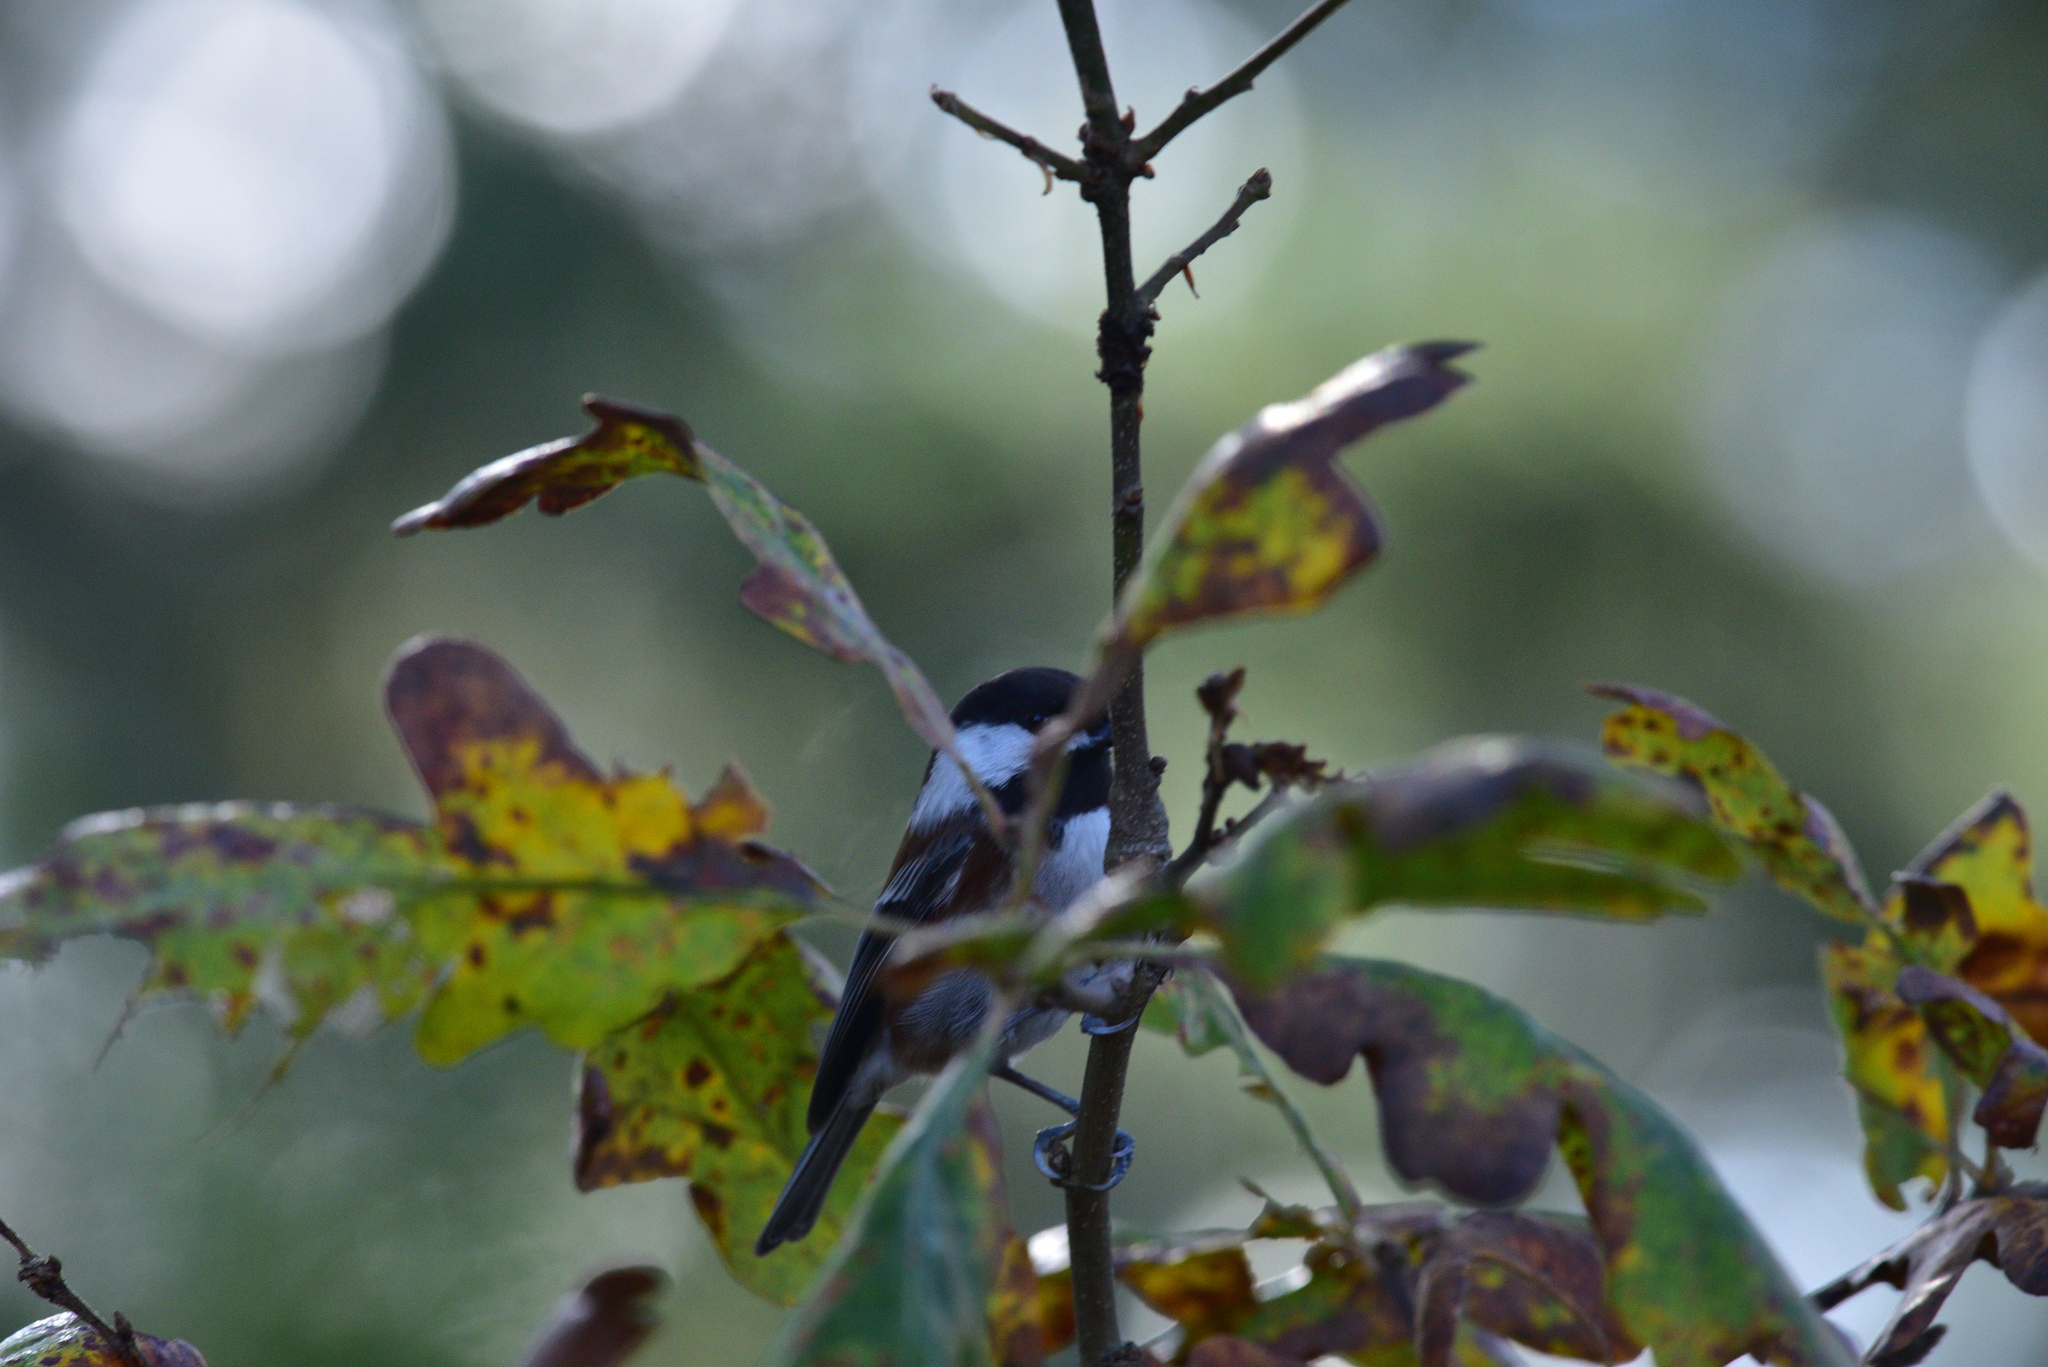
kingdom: Animalia
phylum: Chordata
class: Aves
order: Passeriformes
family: Paridae
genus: Poecile
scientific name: Poecile rufescens
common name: Chestnut-backed chickadee
